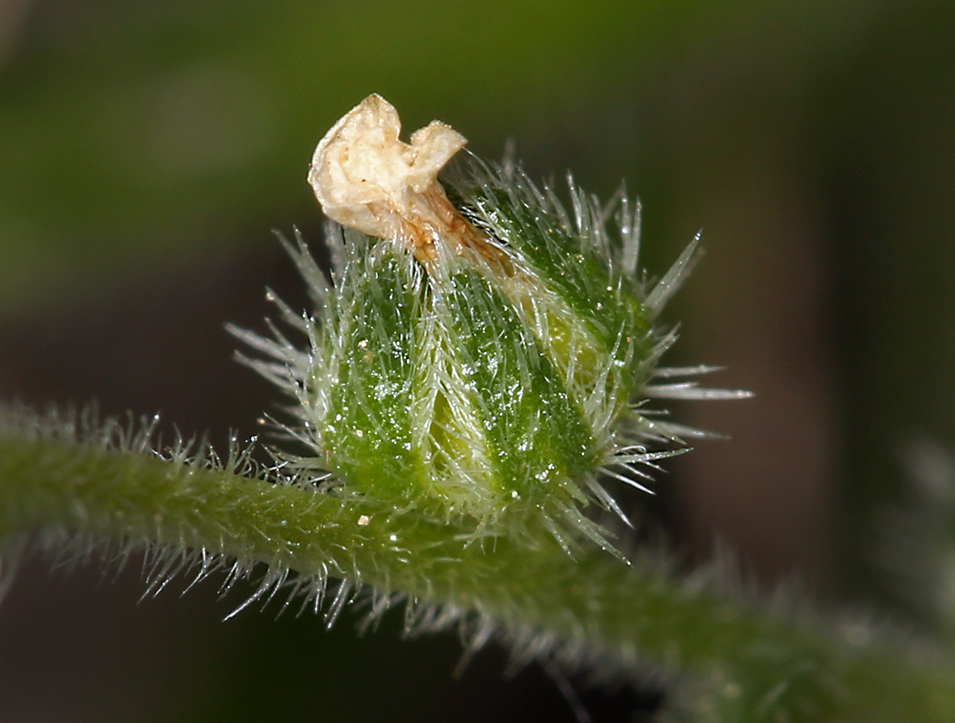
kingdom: Plantae
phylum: Tracheophyta
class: Magnoliopsida
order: Boraginales
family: Boraginaceae
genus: Plagiobothrys
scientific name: Plagiobothrys collinus
